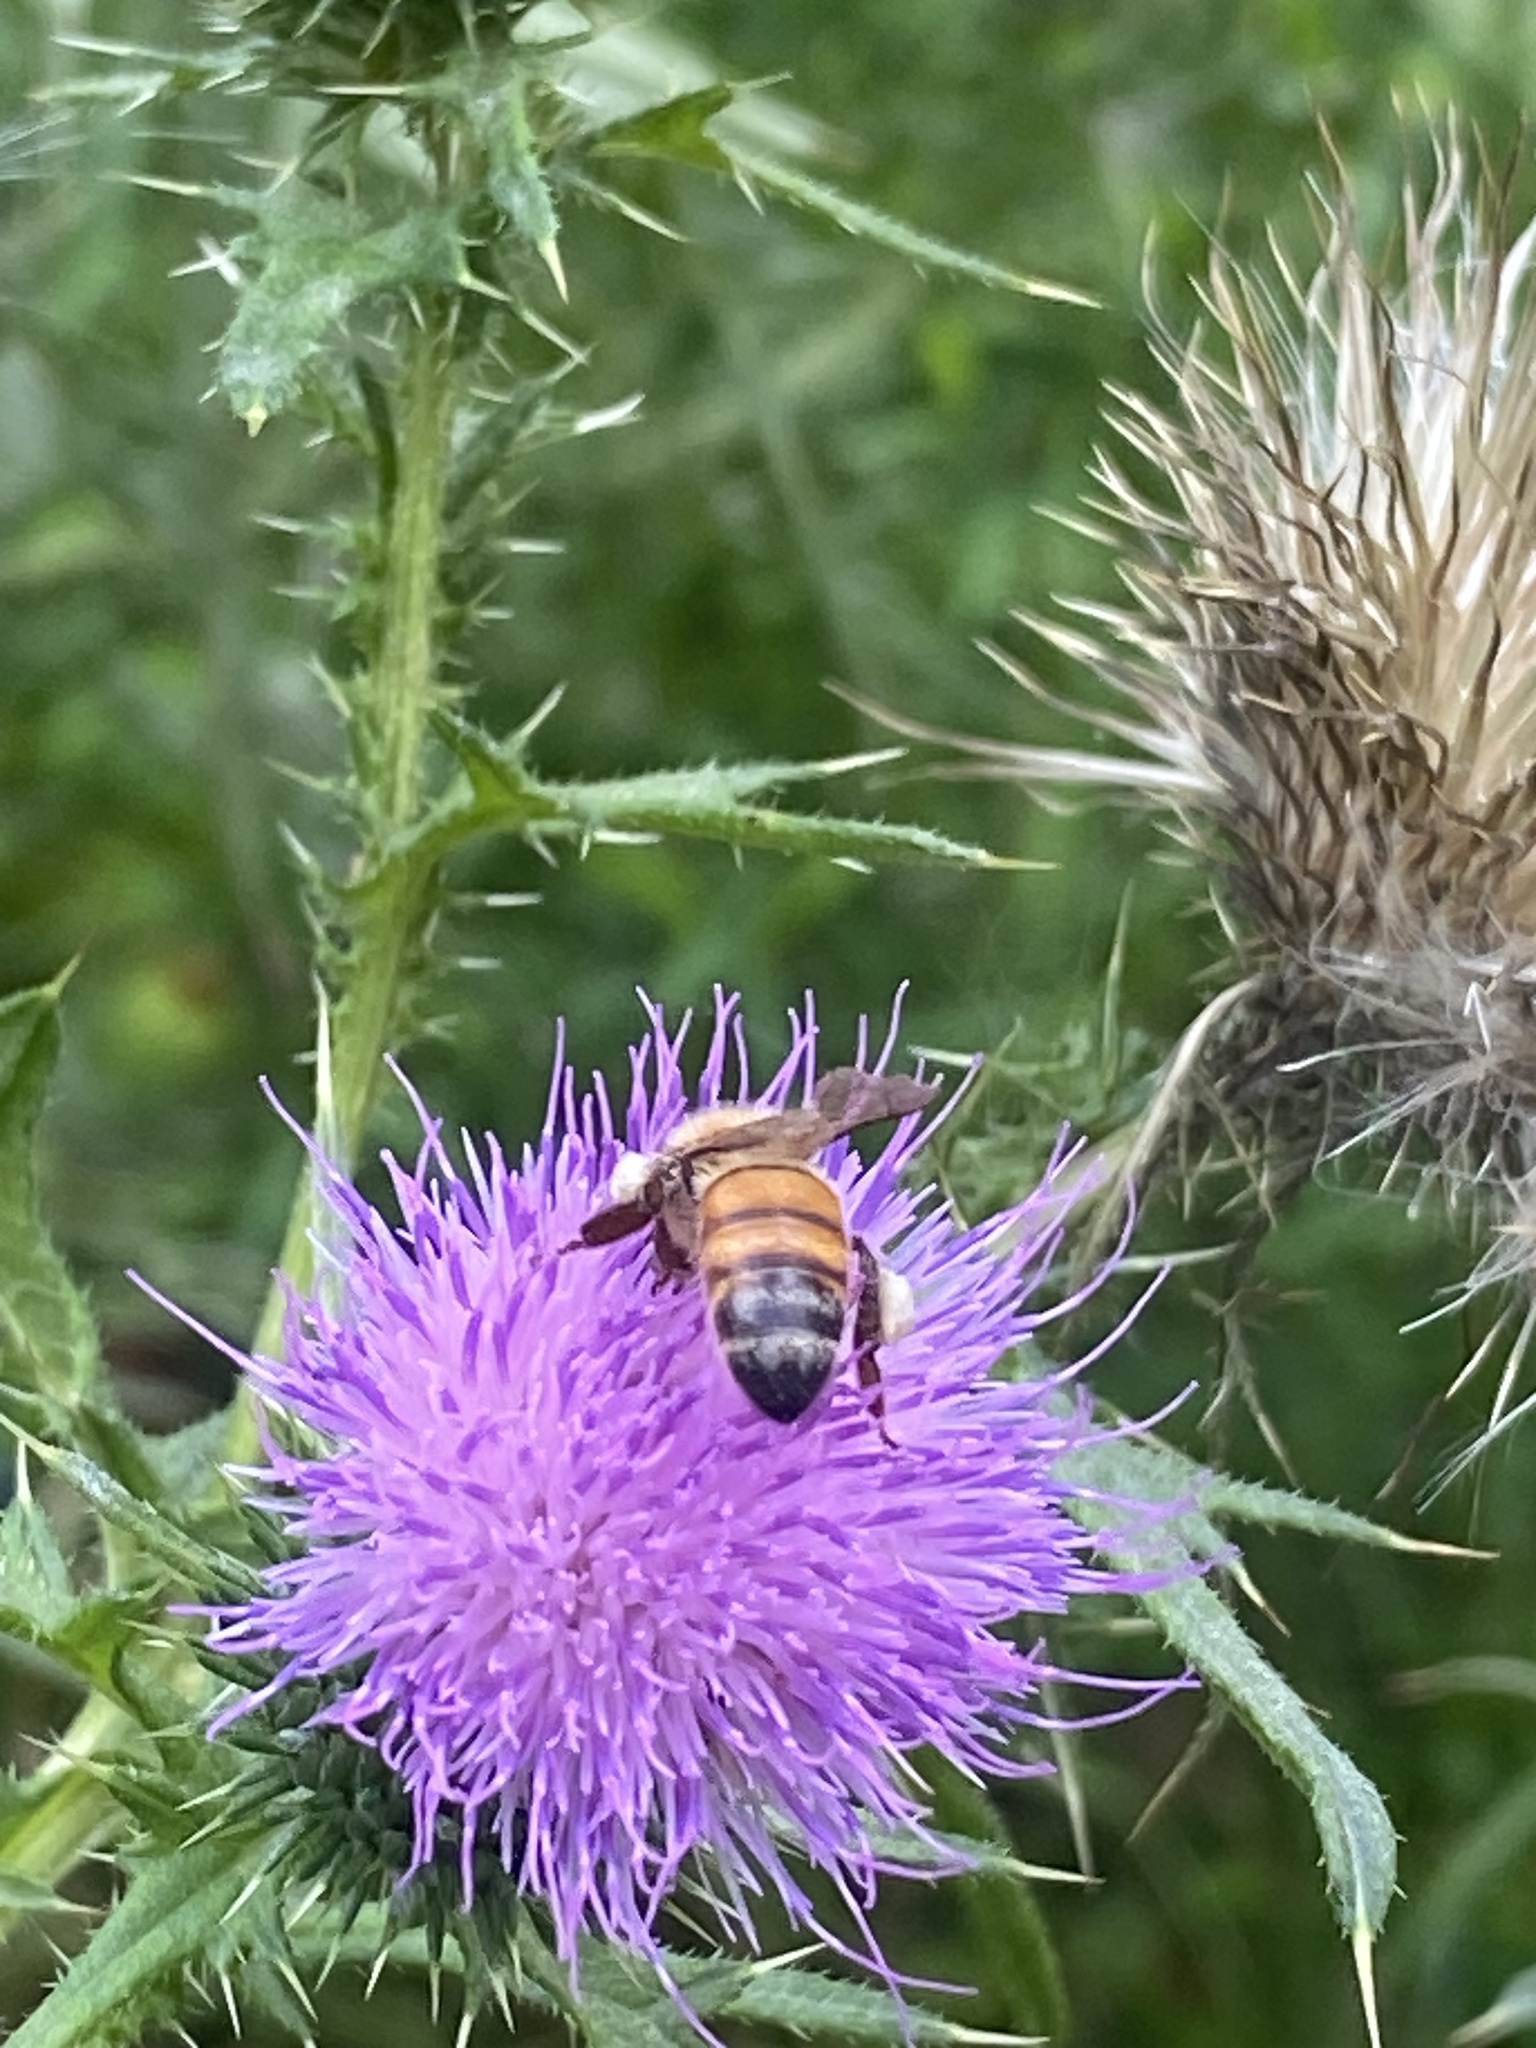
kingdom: Animalia
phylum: Arthropoda
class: Insecta
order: Hymenoptera
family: Apidae
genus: Apis
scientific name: Apis mellifera
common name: Honey bee
